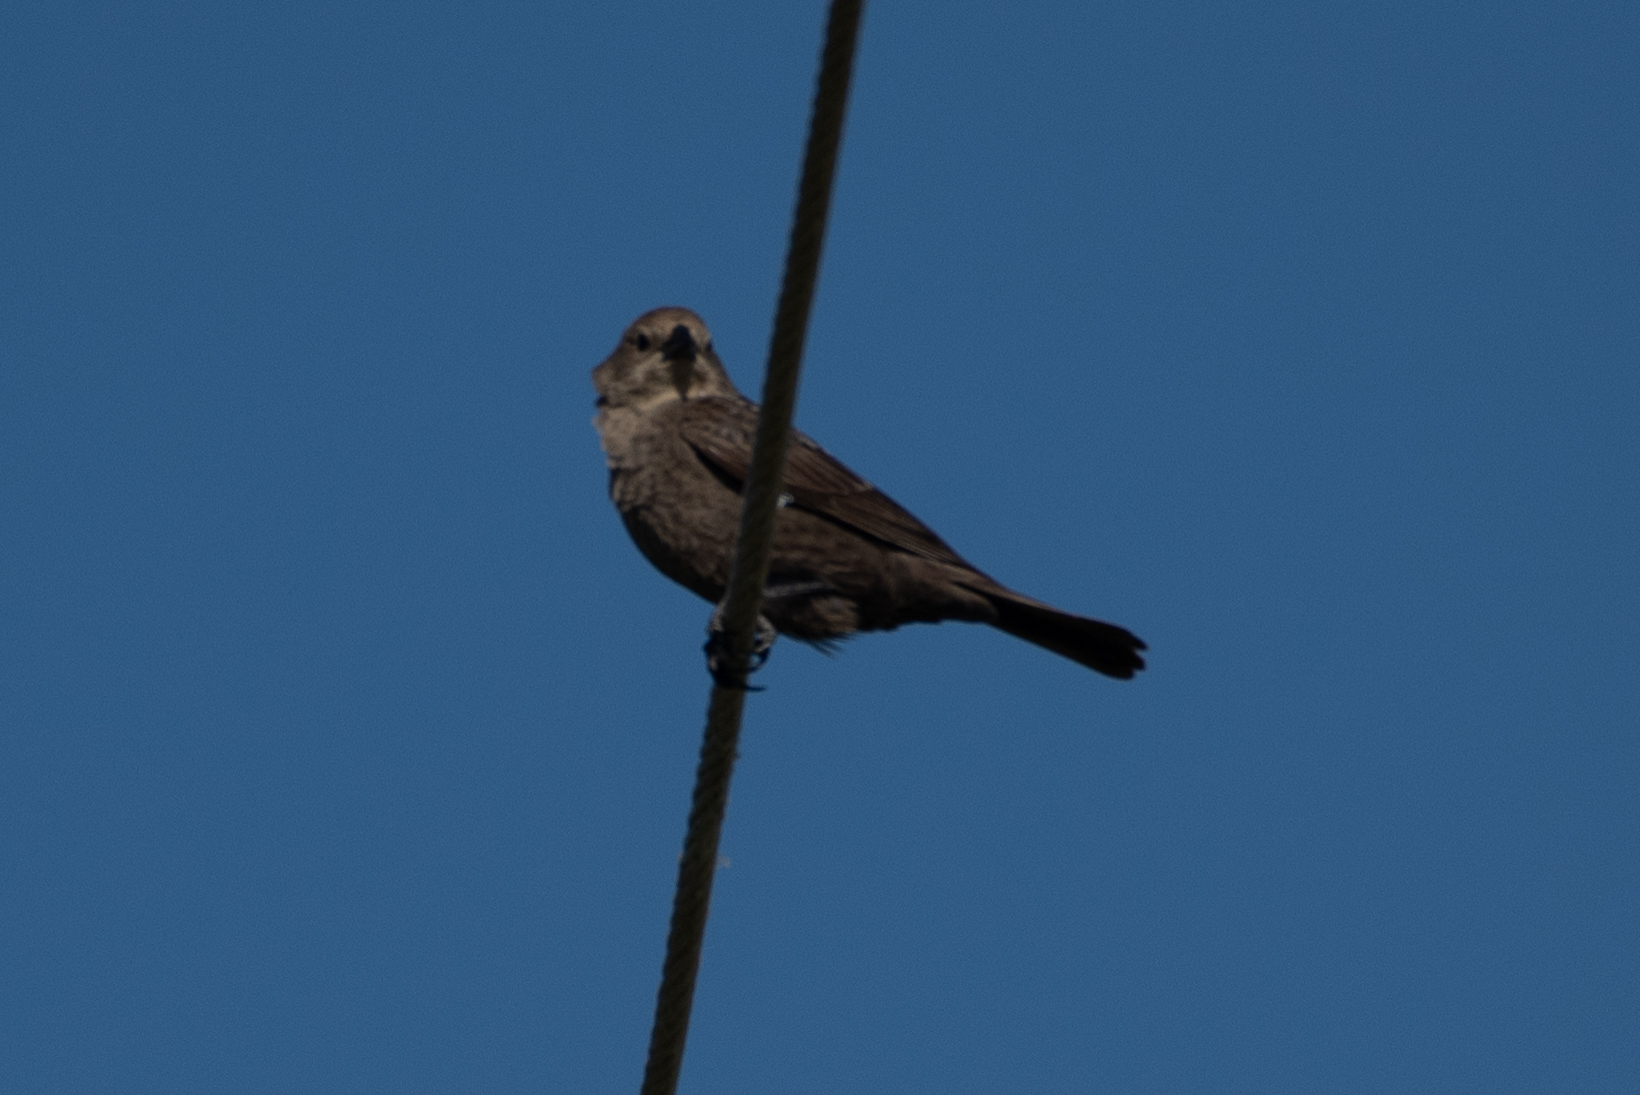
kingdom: Animalia
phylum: Chordata
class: Aves
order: Passeriformes
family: Icteridae
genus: Molothrus
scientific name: Molothrus ater
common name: Brown-headed cowbird
